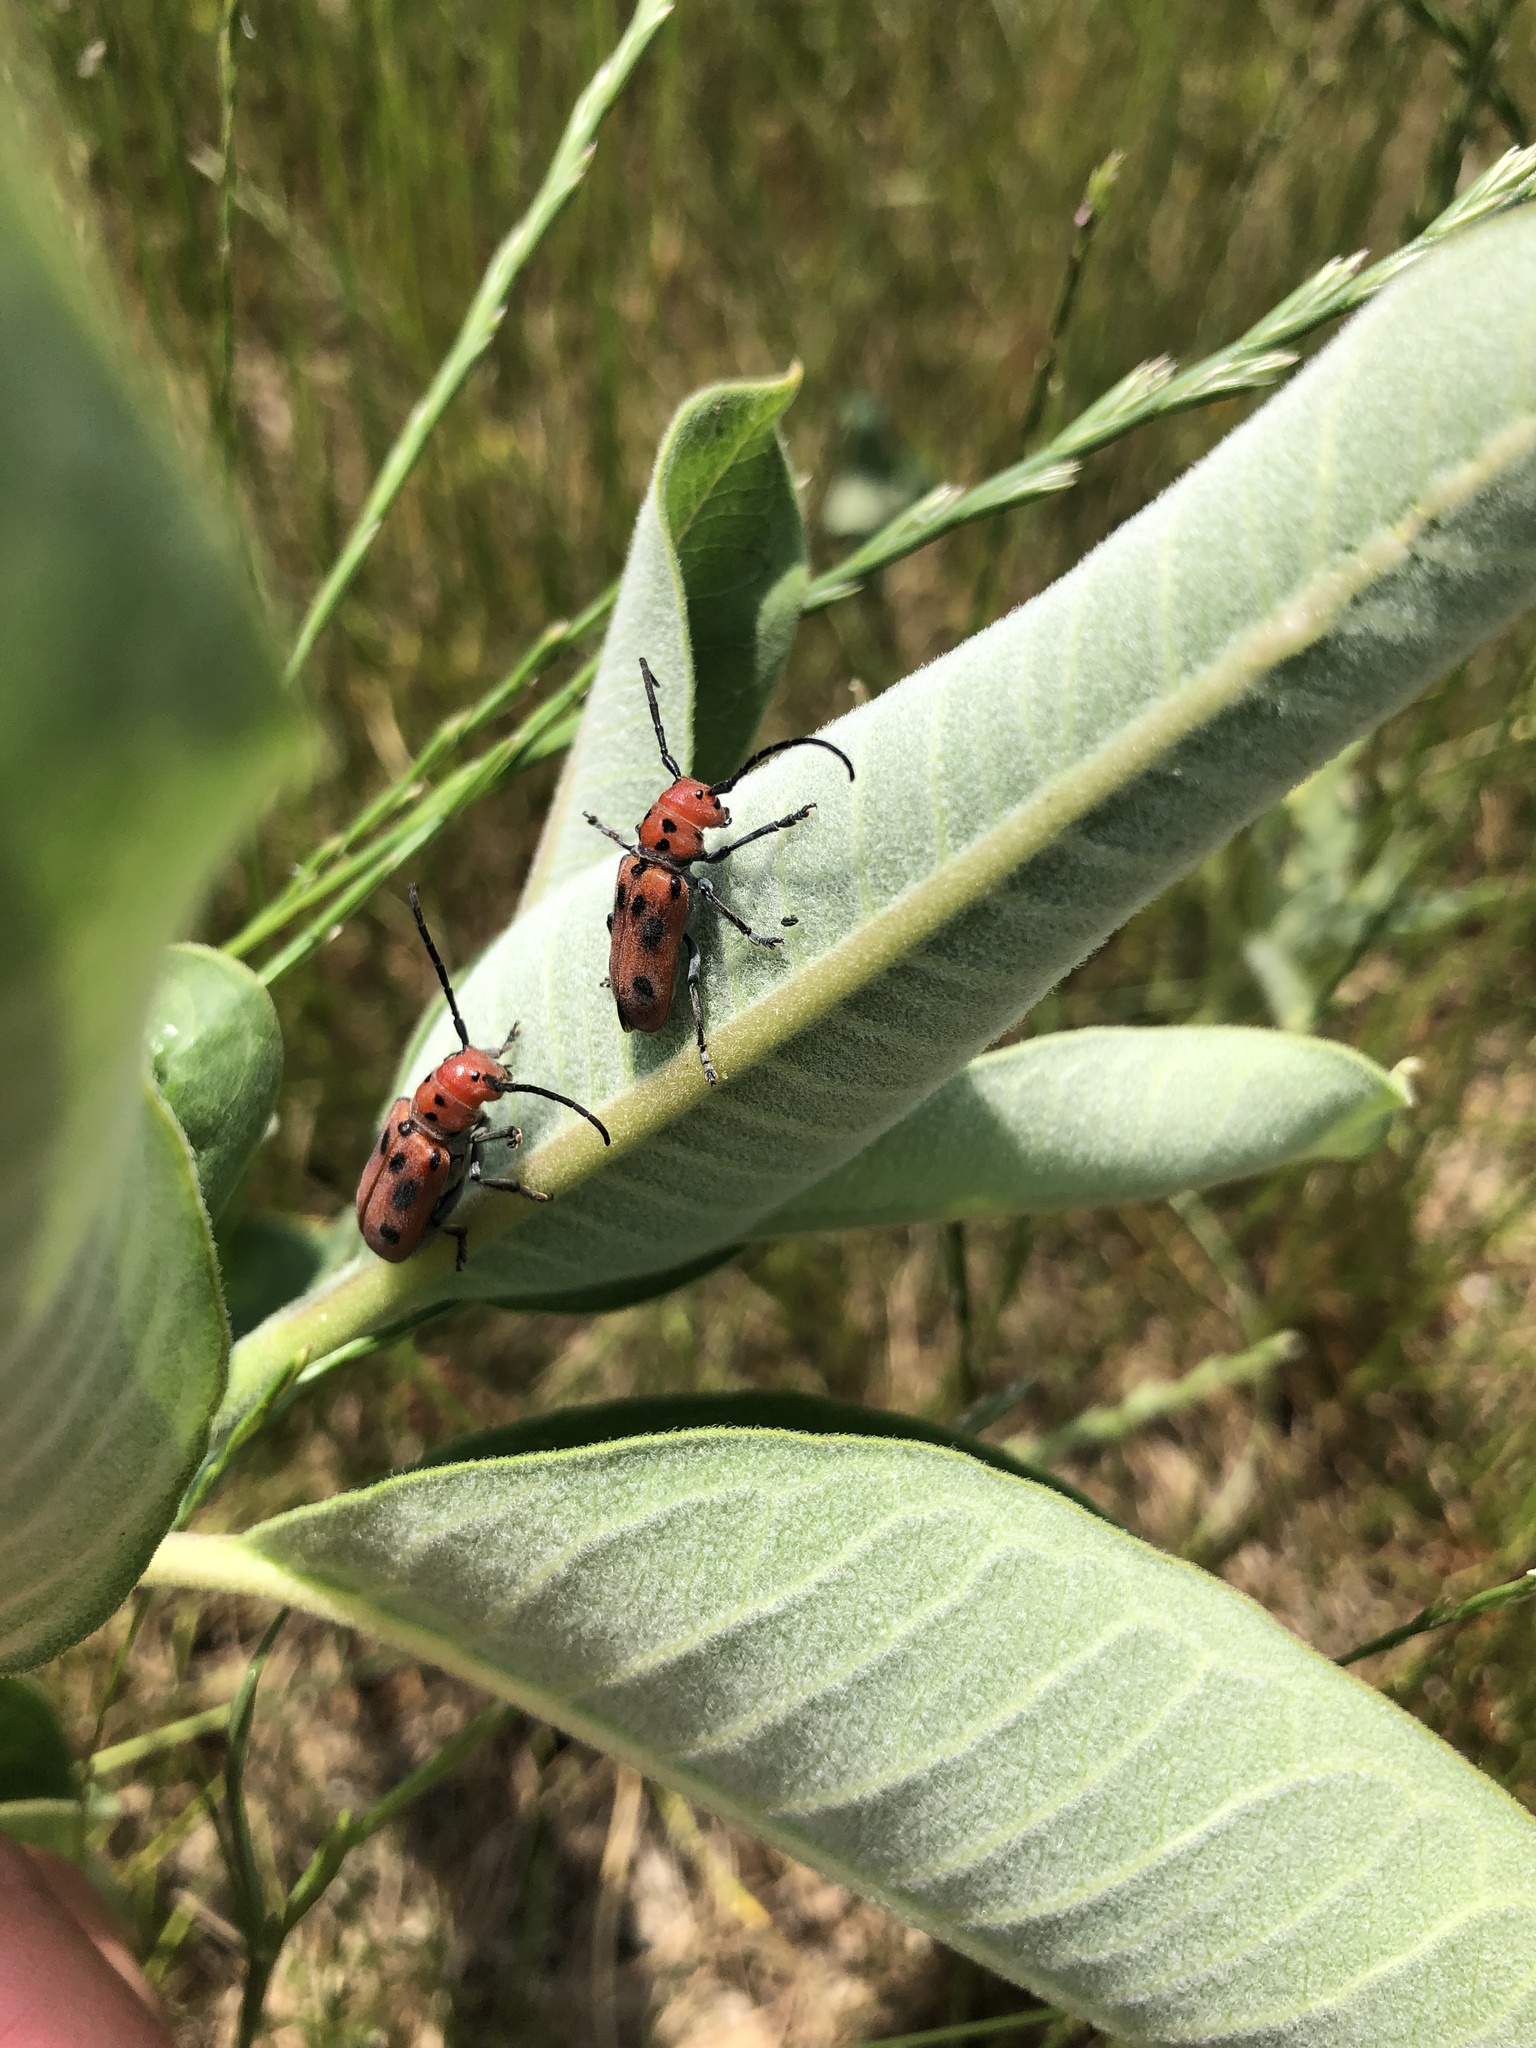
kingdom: Animalia
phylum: Arthropoda
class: Insecta
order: Coleoptera
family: Cerambycidae
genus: Tetraopes
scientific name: Tetraopes tetrophthalmus
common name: Red milkweed beetle
